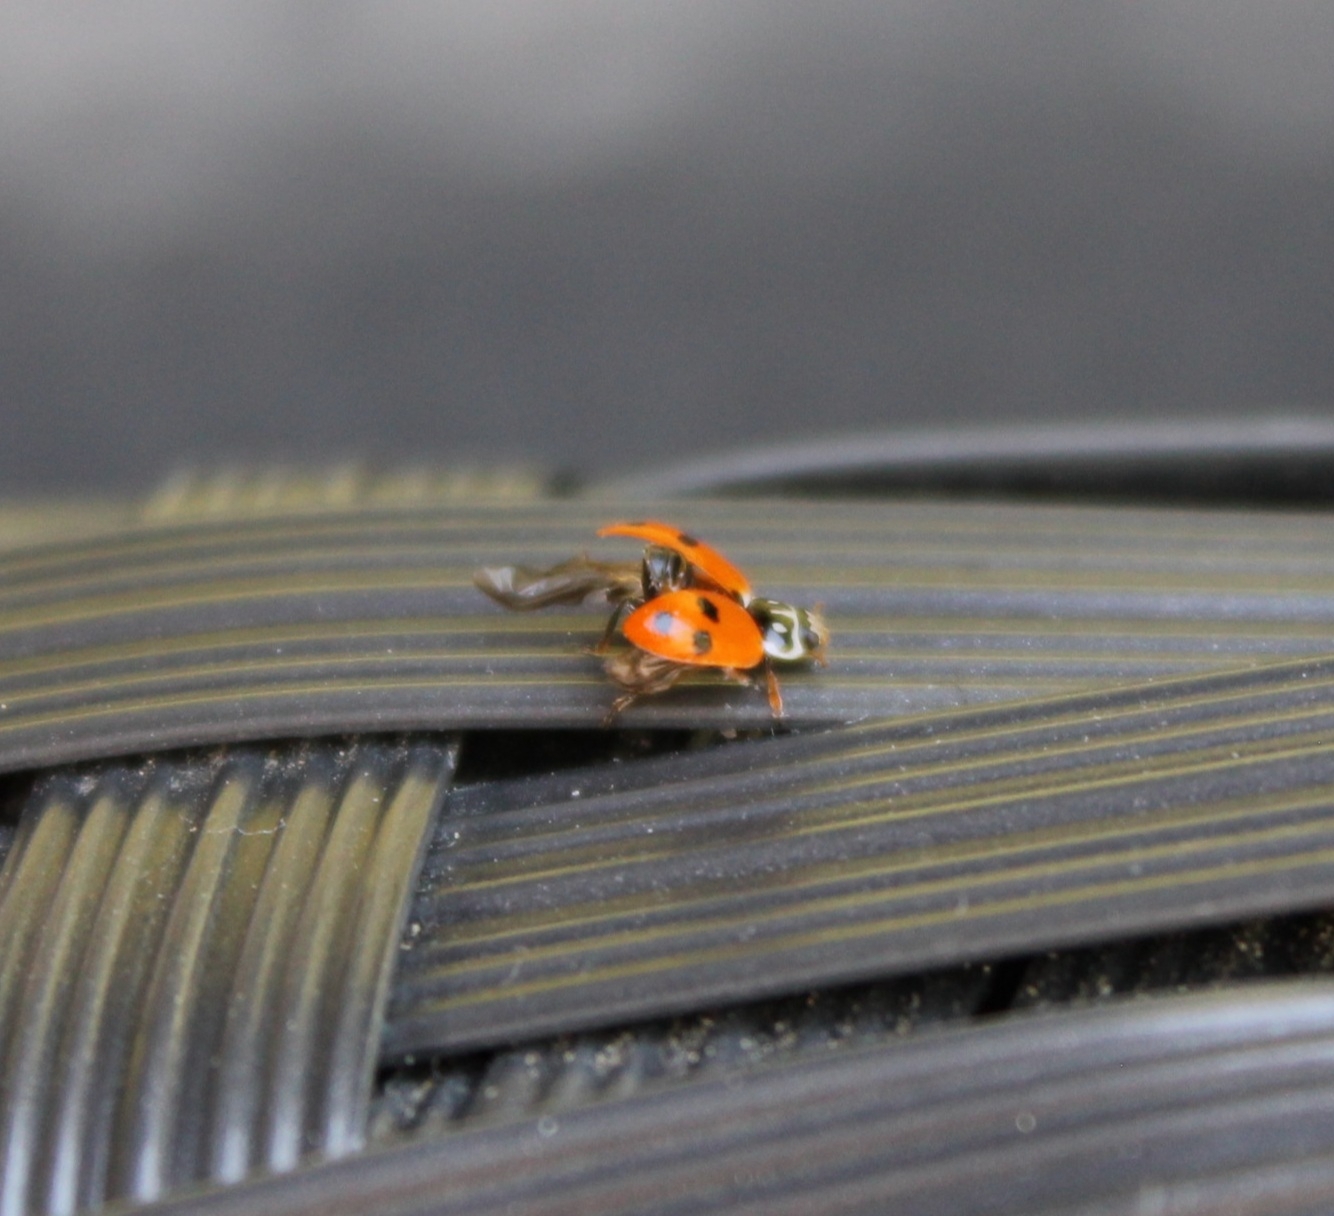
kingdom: Animalia
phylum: Arthropoda
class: Insecta
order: Coleoptera
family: Coccinellidae
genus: Hippodamia
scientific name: Hippodamia variegata
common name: Ladybird beetle
